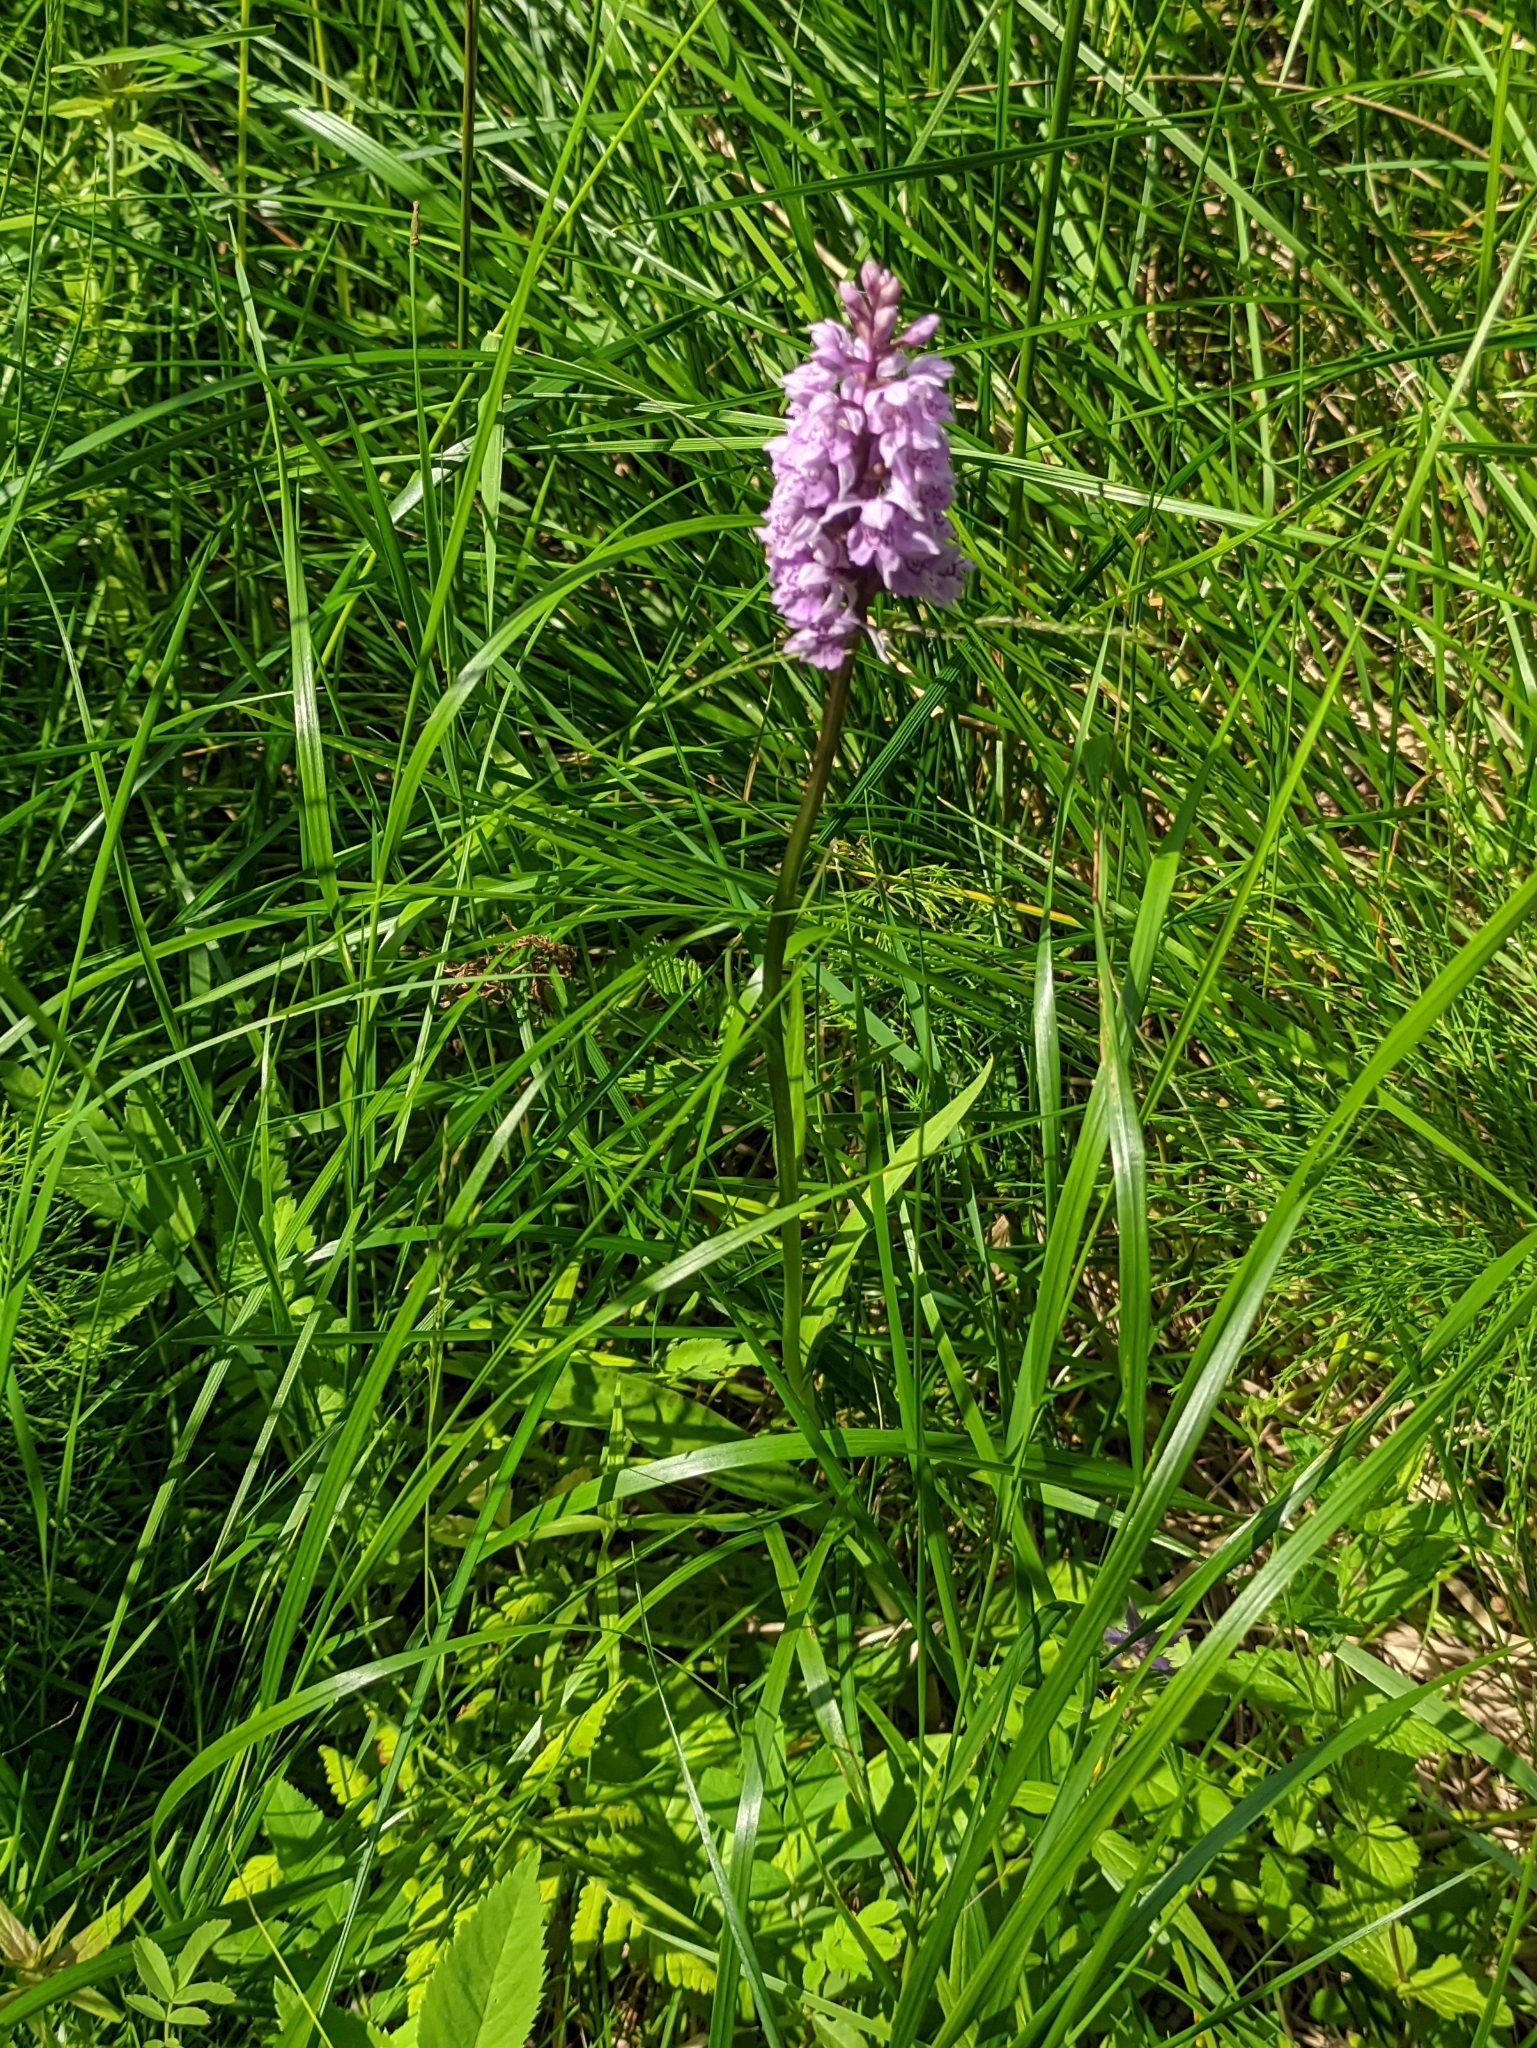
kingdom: Plantae
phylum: Tracheophyta
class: Liliopsida
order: Asparagales
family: Orchidaceae
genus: Dactylorhiza
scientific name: Dactylorhiza maculata
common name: Heath spotted-orchid
